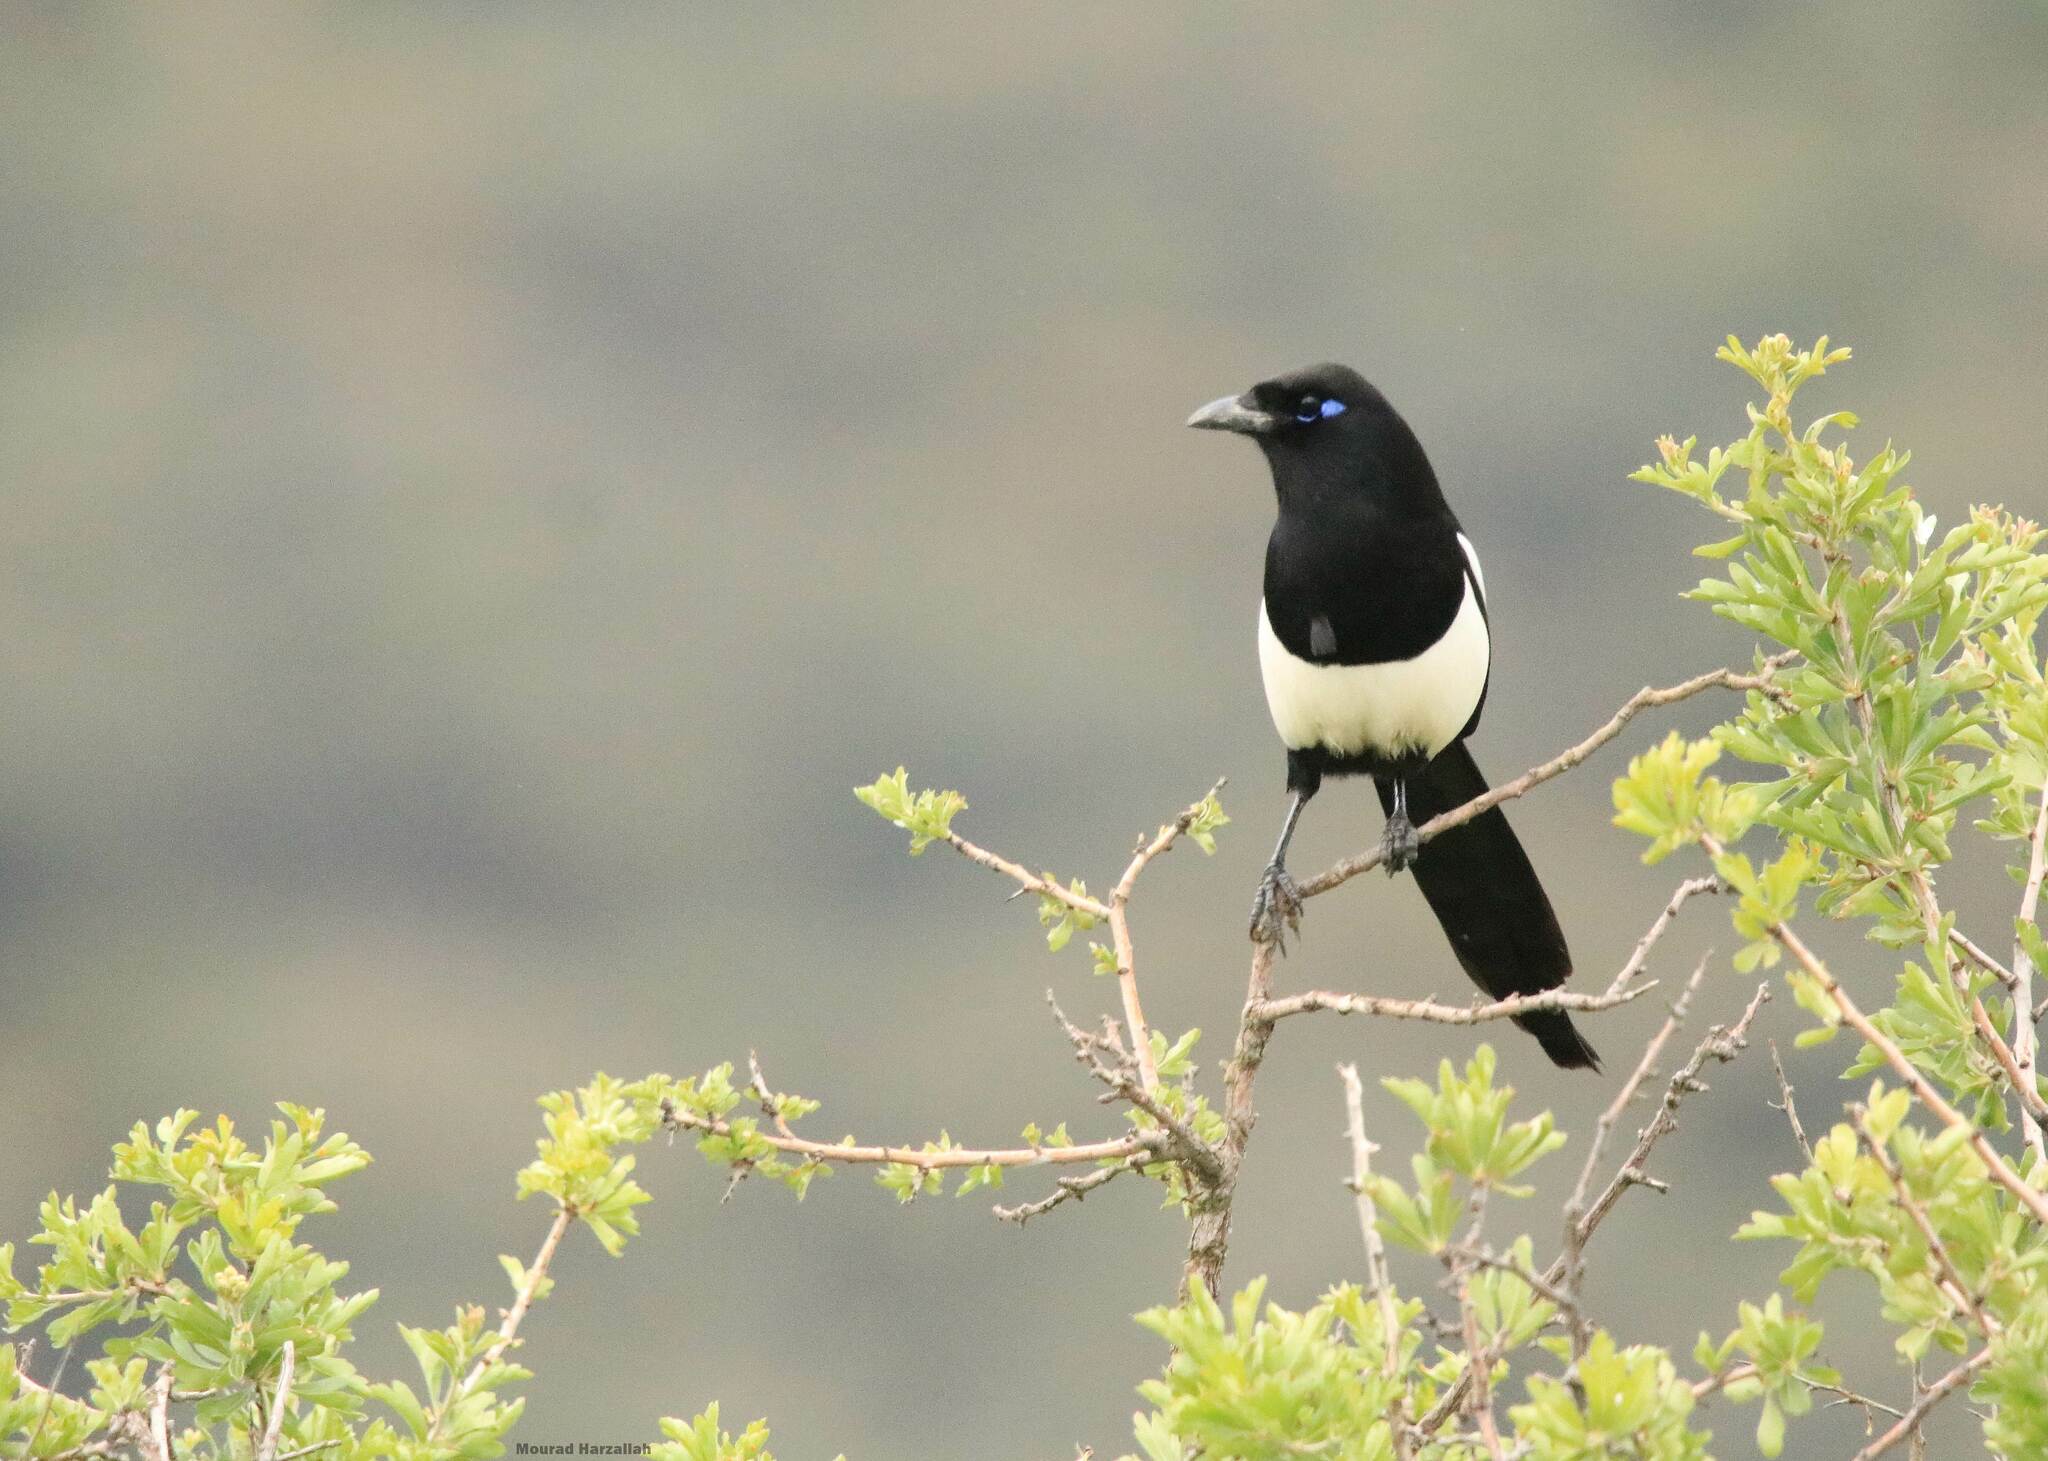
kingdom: Animalia
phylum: Chordata
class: Aves
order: Passeriformes
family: Corvidae
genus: Pica
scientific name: Pica mauritanica
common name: Maghreb magpie
